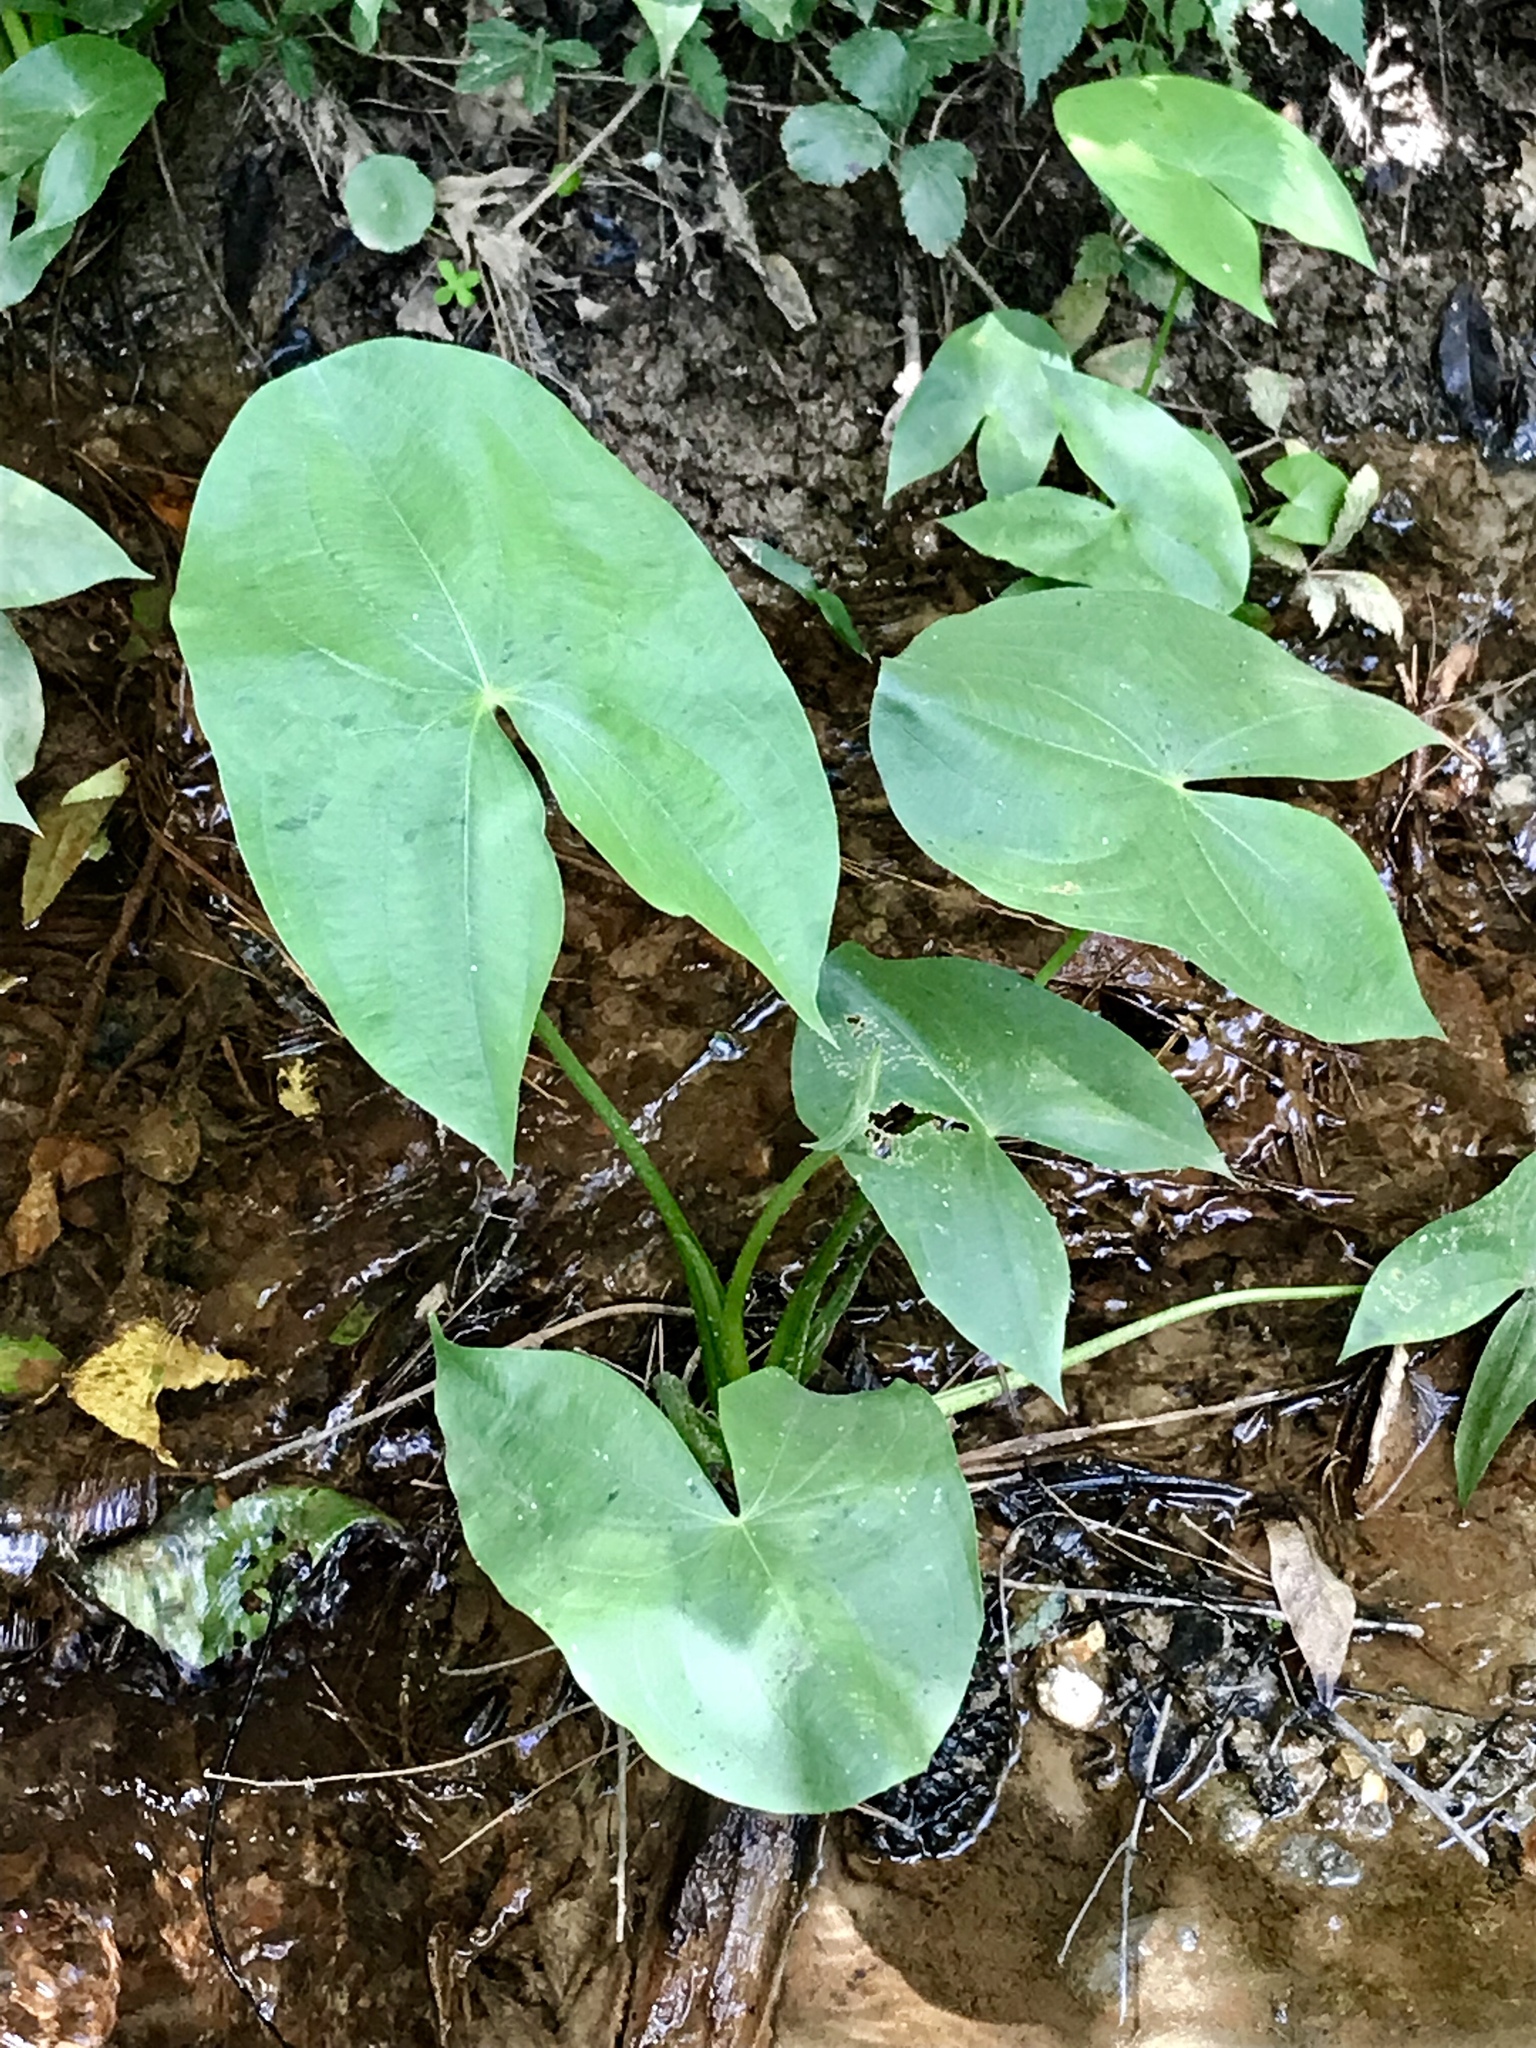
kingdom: Plantae
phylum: Tracheophyta
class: Liliopsida
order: Alismatales
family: Alismataceae
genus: Sagittaria
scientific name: Sagittaria latifolia
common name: Duck-potato
